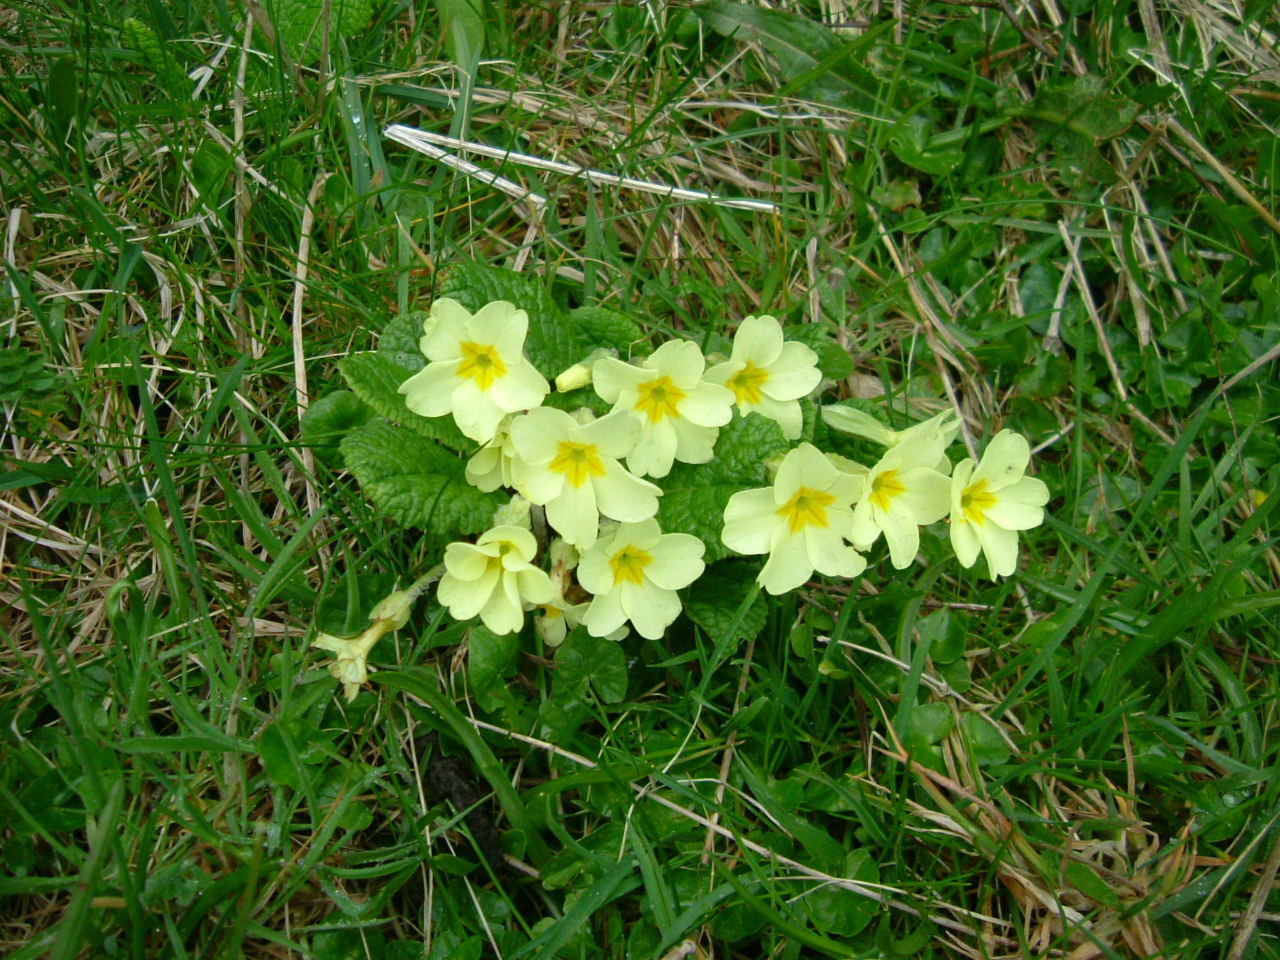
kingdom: Plantae
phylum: Tracheophyta
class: Magnoliopsida
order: Ericales
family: Primulaceae
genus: Primula
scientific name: Primula vulgaris
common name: Primrose
